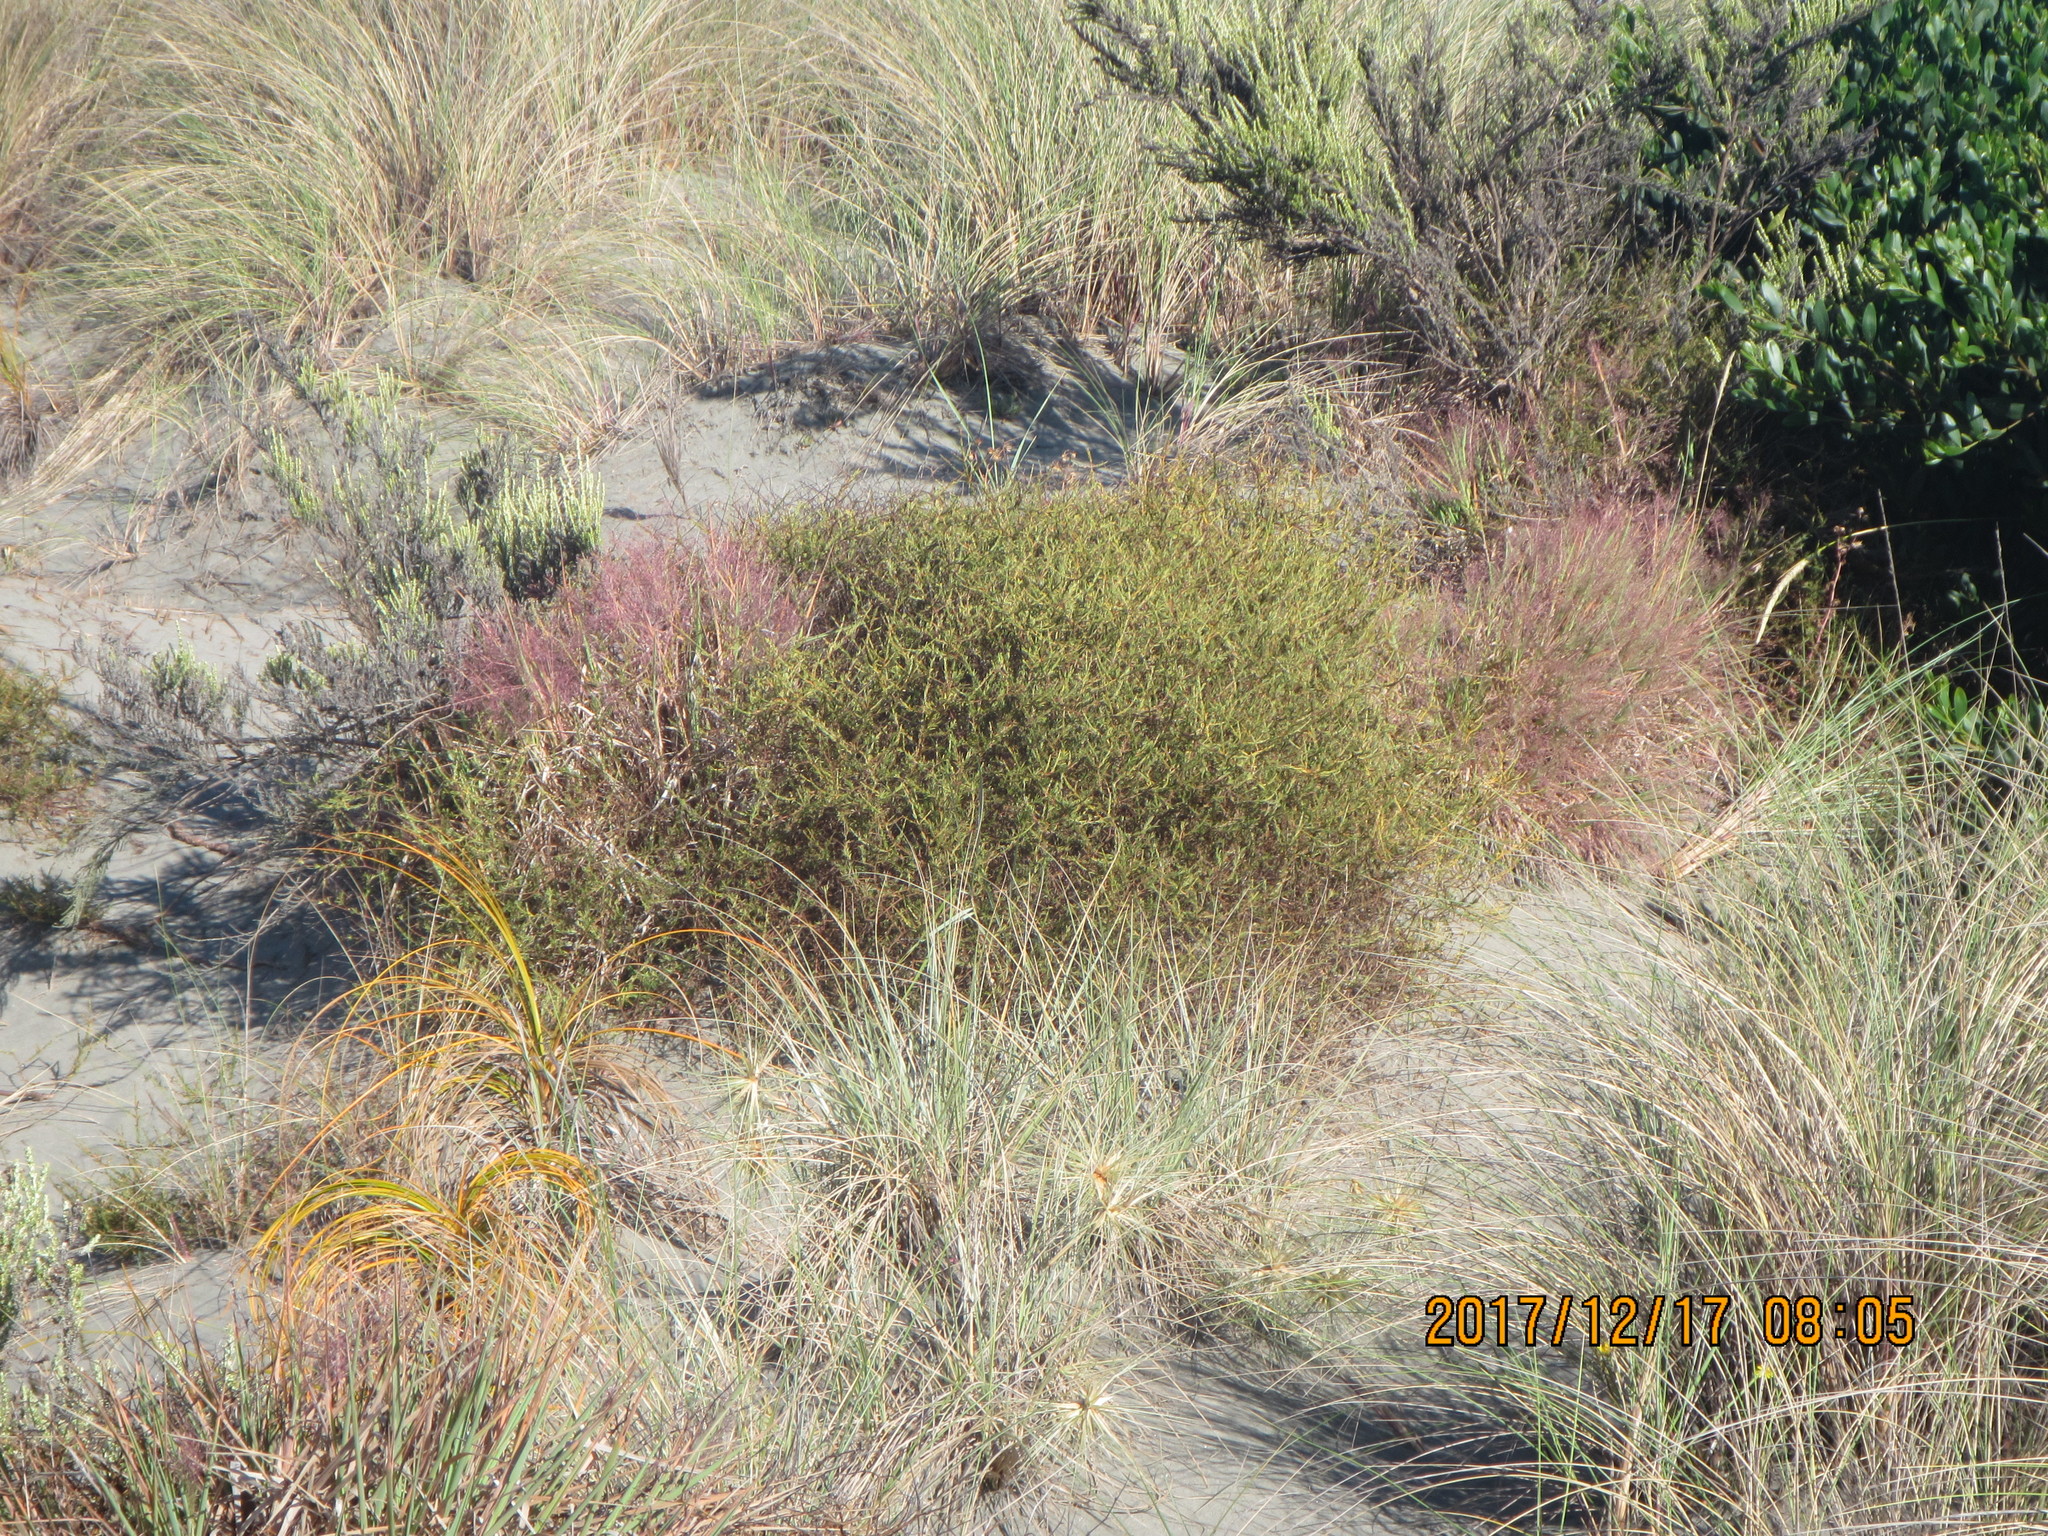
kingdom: Plantae
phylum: Tracheophyta
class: Magnoliopsida
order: Gentianales
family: Rubiaceae
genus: Coprosma
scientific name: Coprosma acerosa
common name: Sand coprosma
